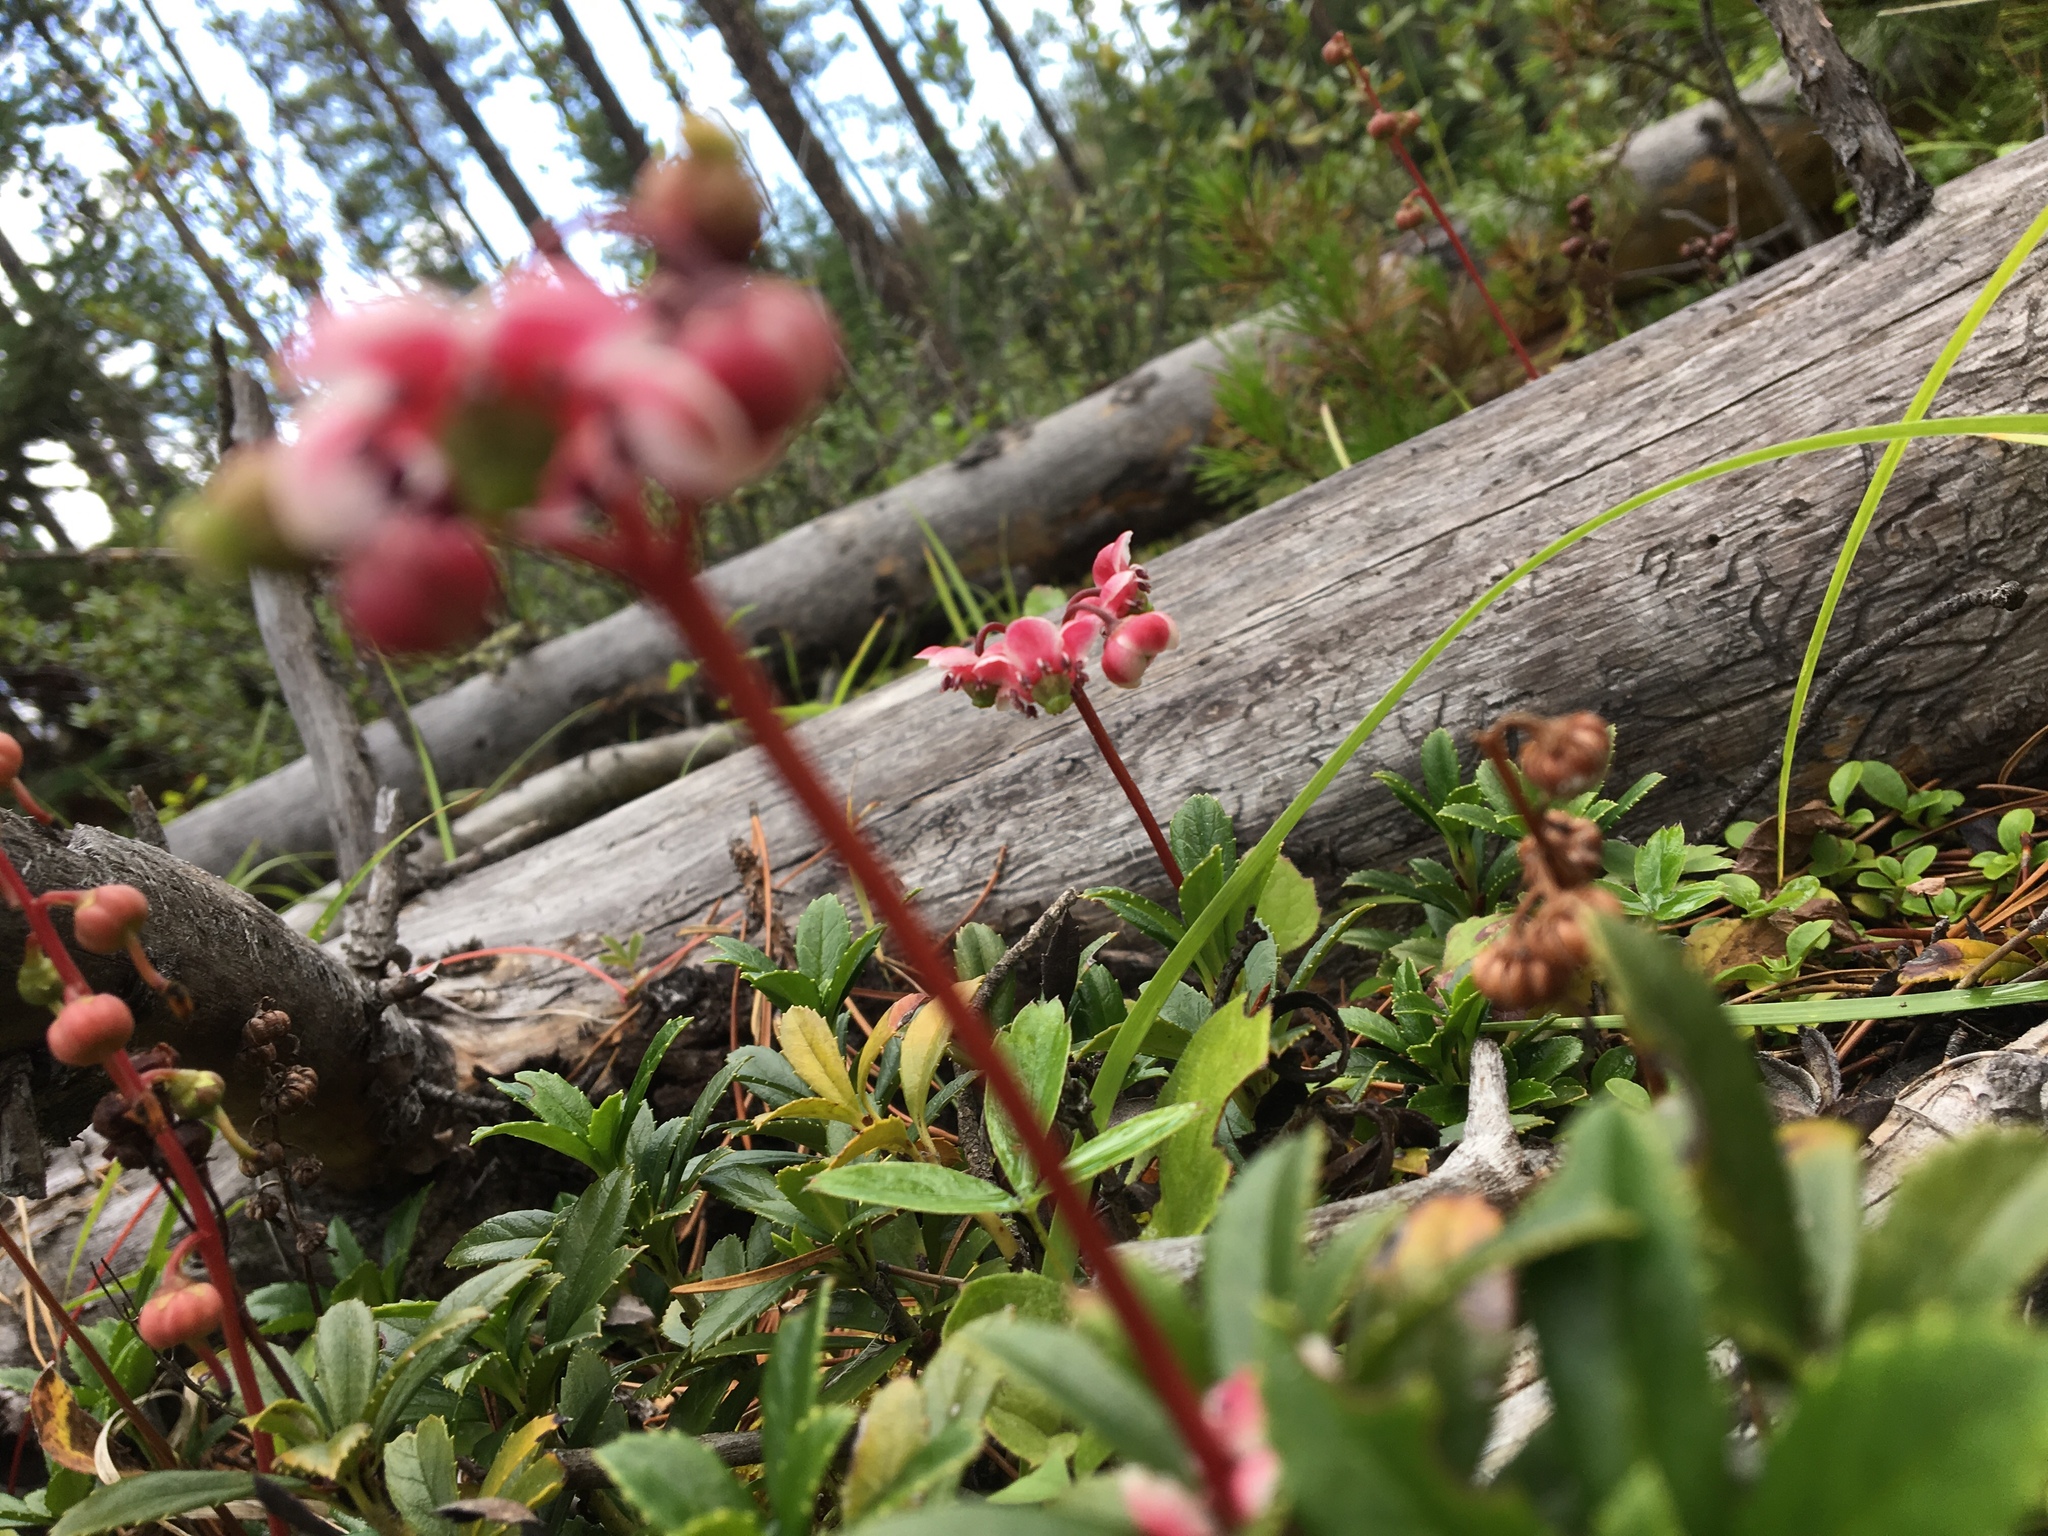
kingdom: Plantae
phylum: Tracheophyta
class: Magnoliopsida
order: Ericales
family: Ericaceae
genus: Chimaphila
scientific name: Chimaphila umbellata
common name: Pipsissewa
